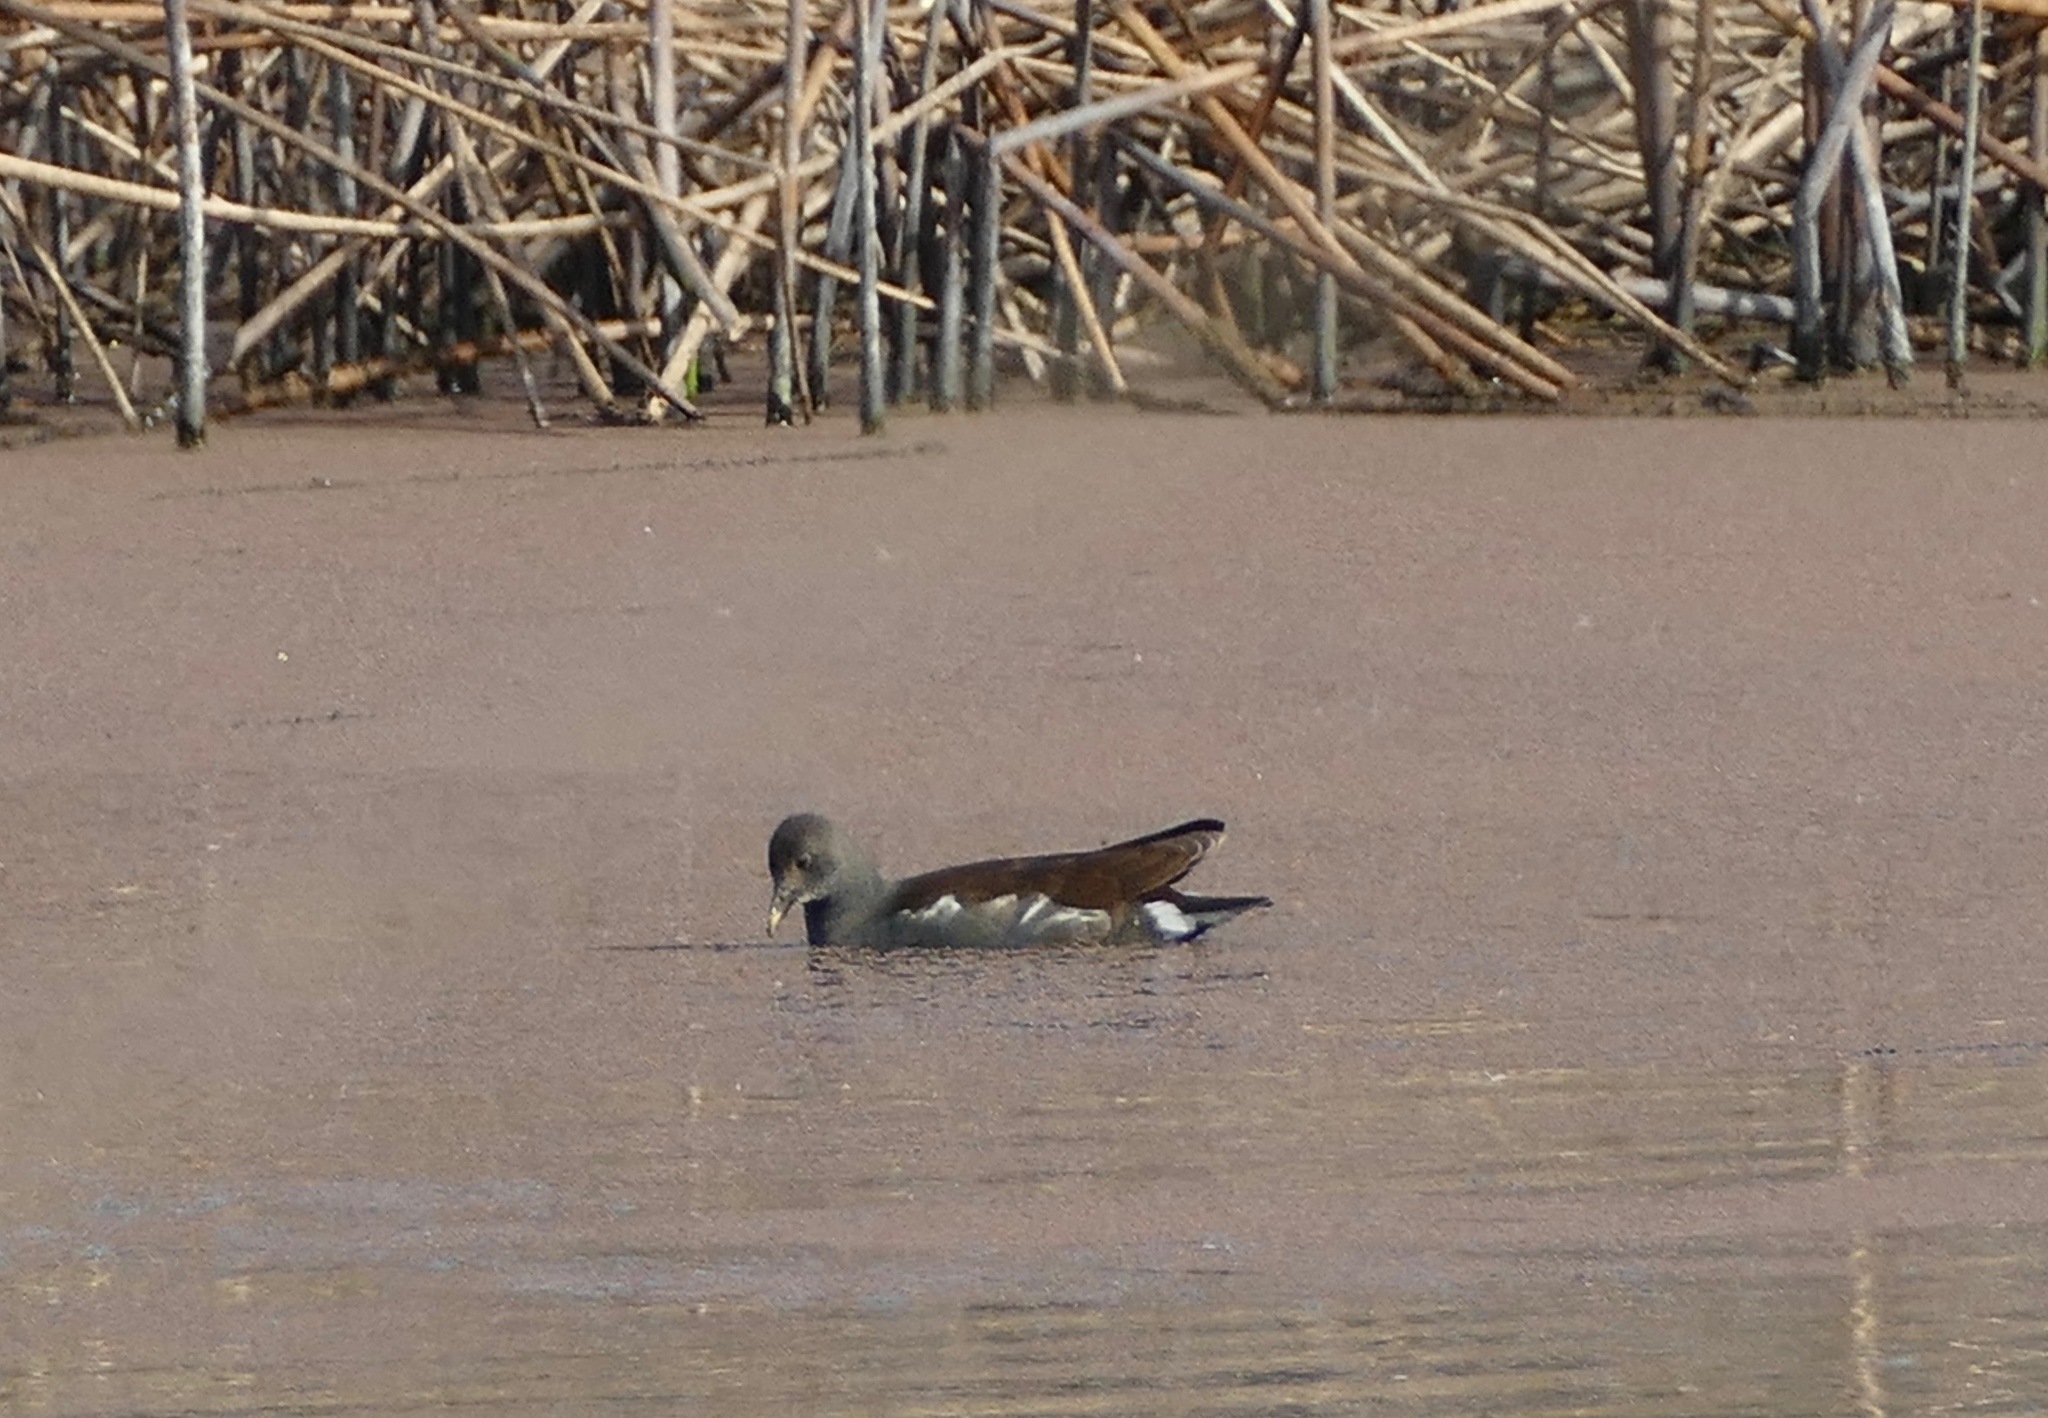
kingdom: Animalia
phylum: Chordata
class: Aves
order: Gruiformes
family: Rallidae
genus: Gallinula
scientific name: Gallinula chloropus
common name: Common moorhen
